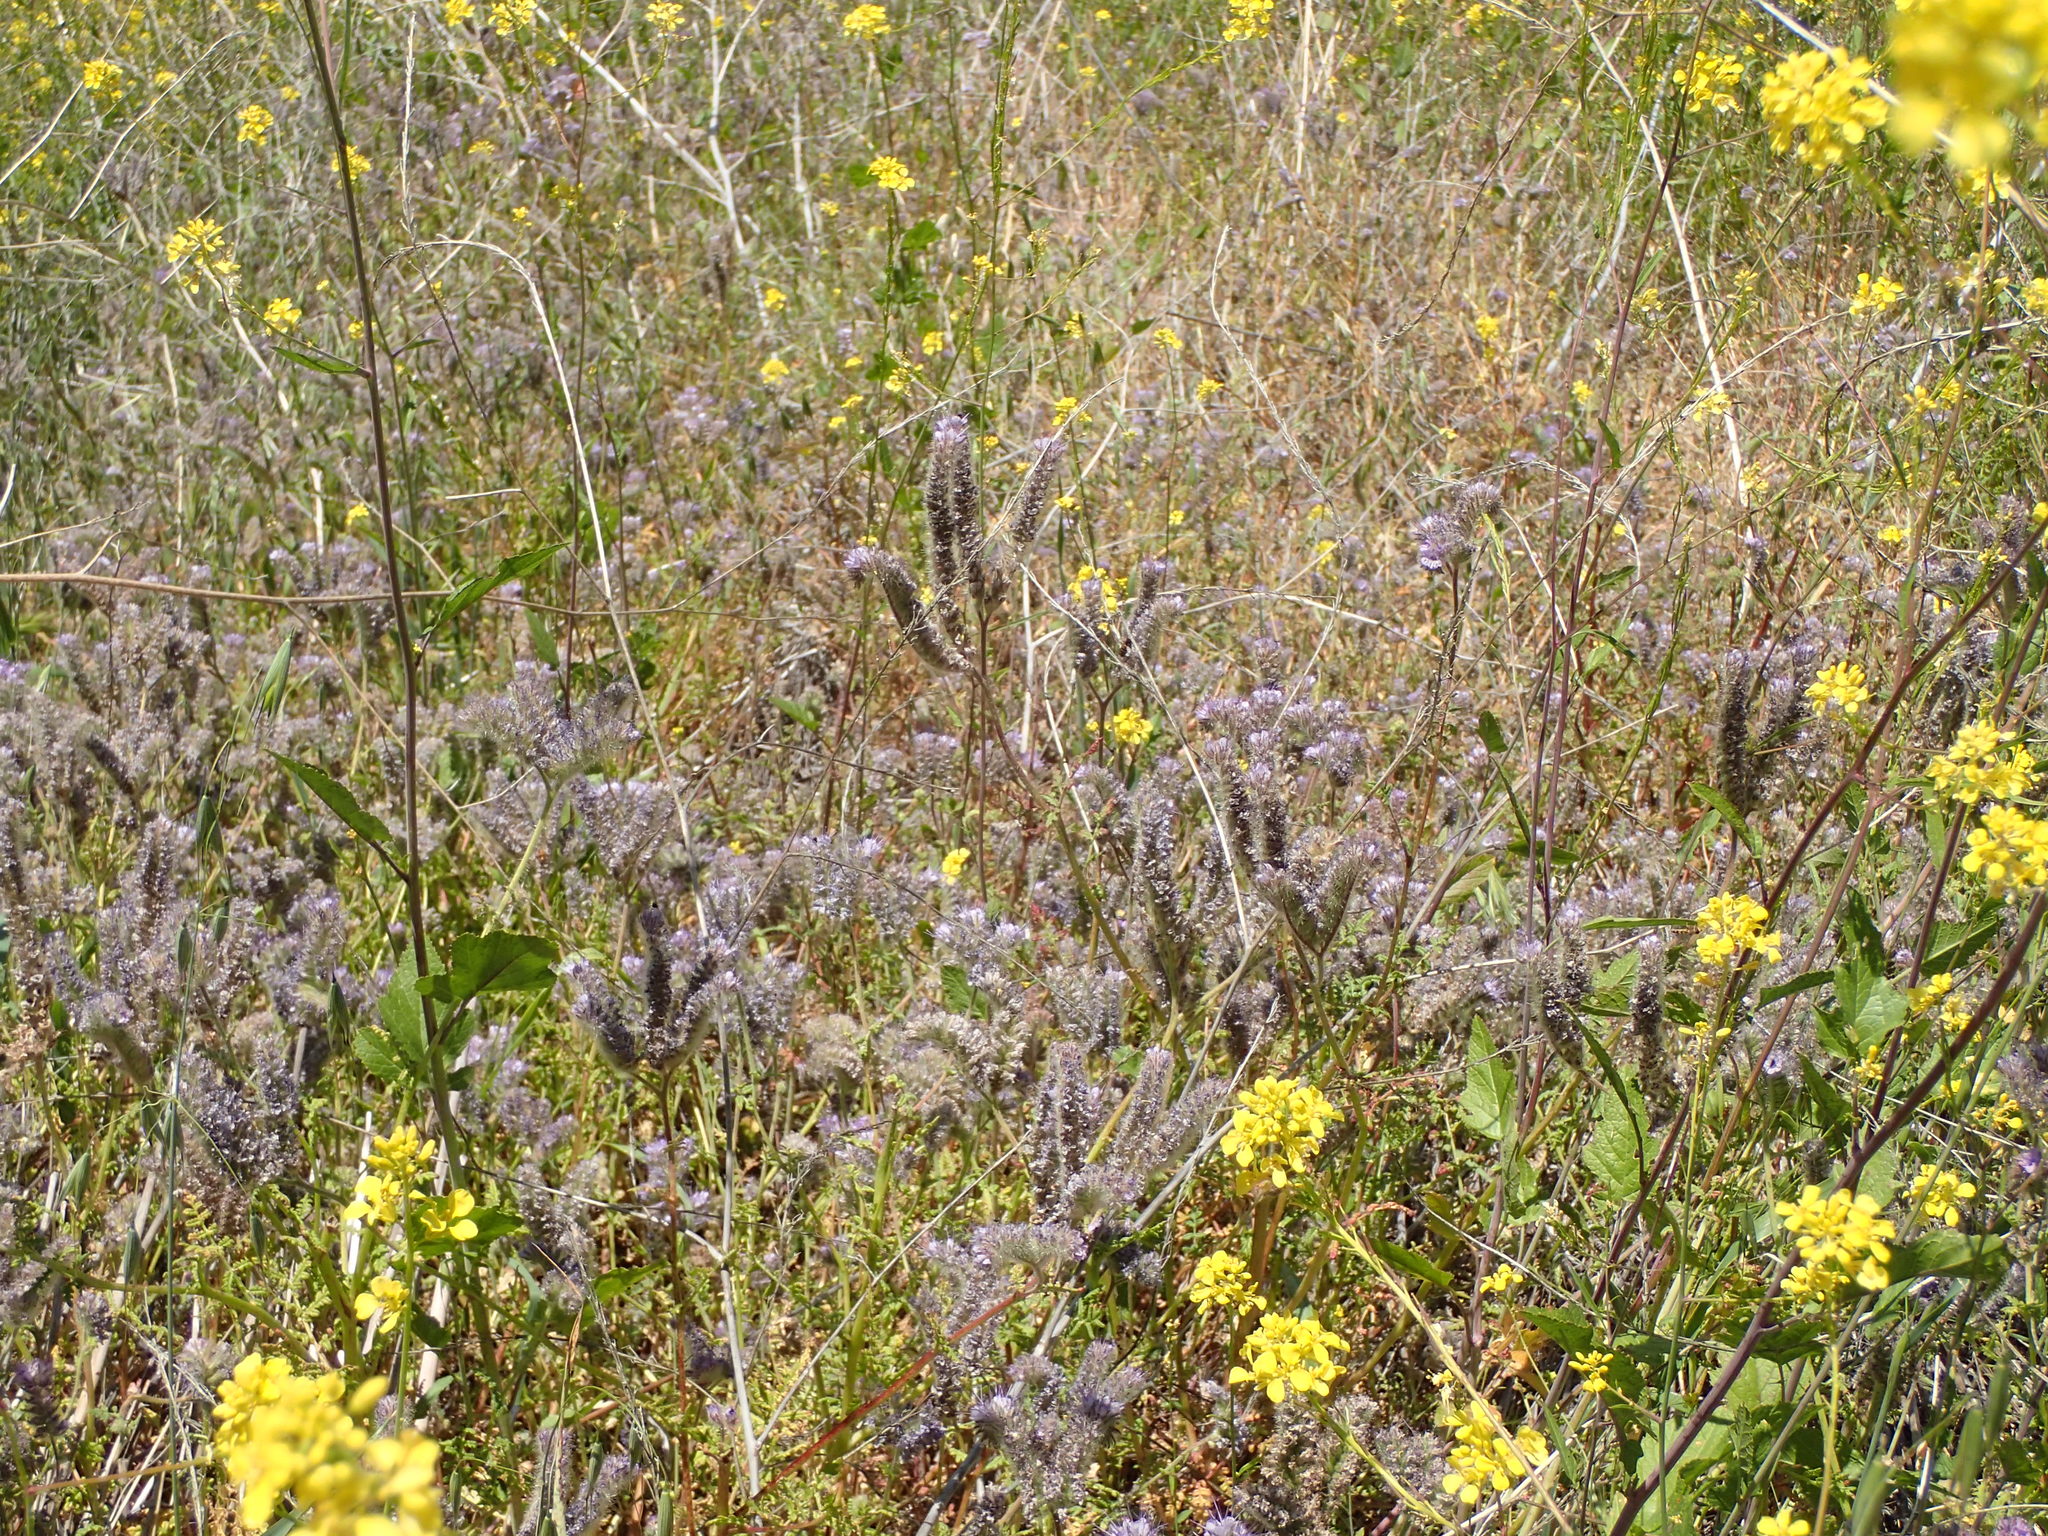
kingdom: Plantae
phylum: Tracheophyta
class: Magnoliopsida
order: Boraginales
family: Hydrophyllaceae
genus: Phacelia
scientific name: Phacelia tanacetifolia
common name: Phacelia
